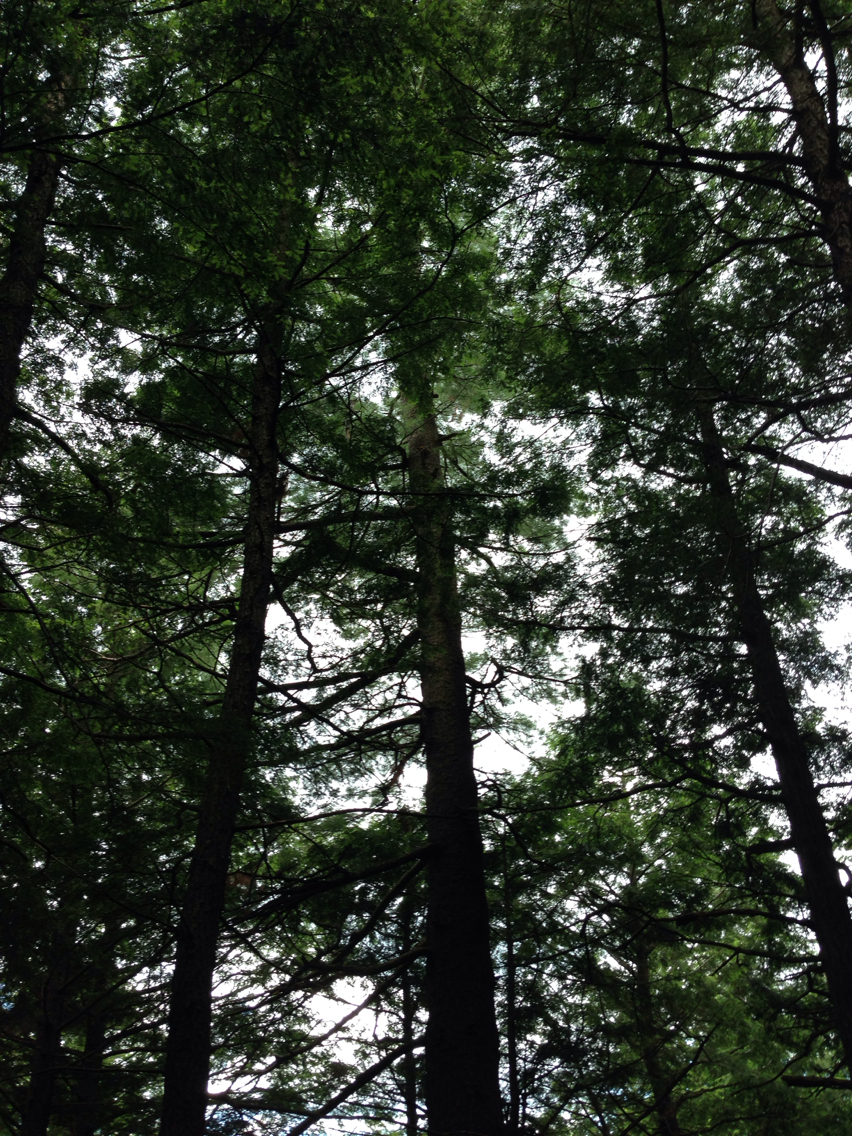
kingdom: Plantae
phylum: Tracheophyta
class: Pinopsida
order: Pinales
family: Pinaceae
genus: Pinus
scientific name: Pinus strobus
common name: Weymouth pine
